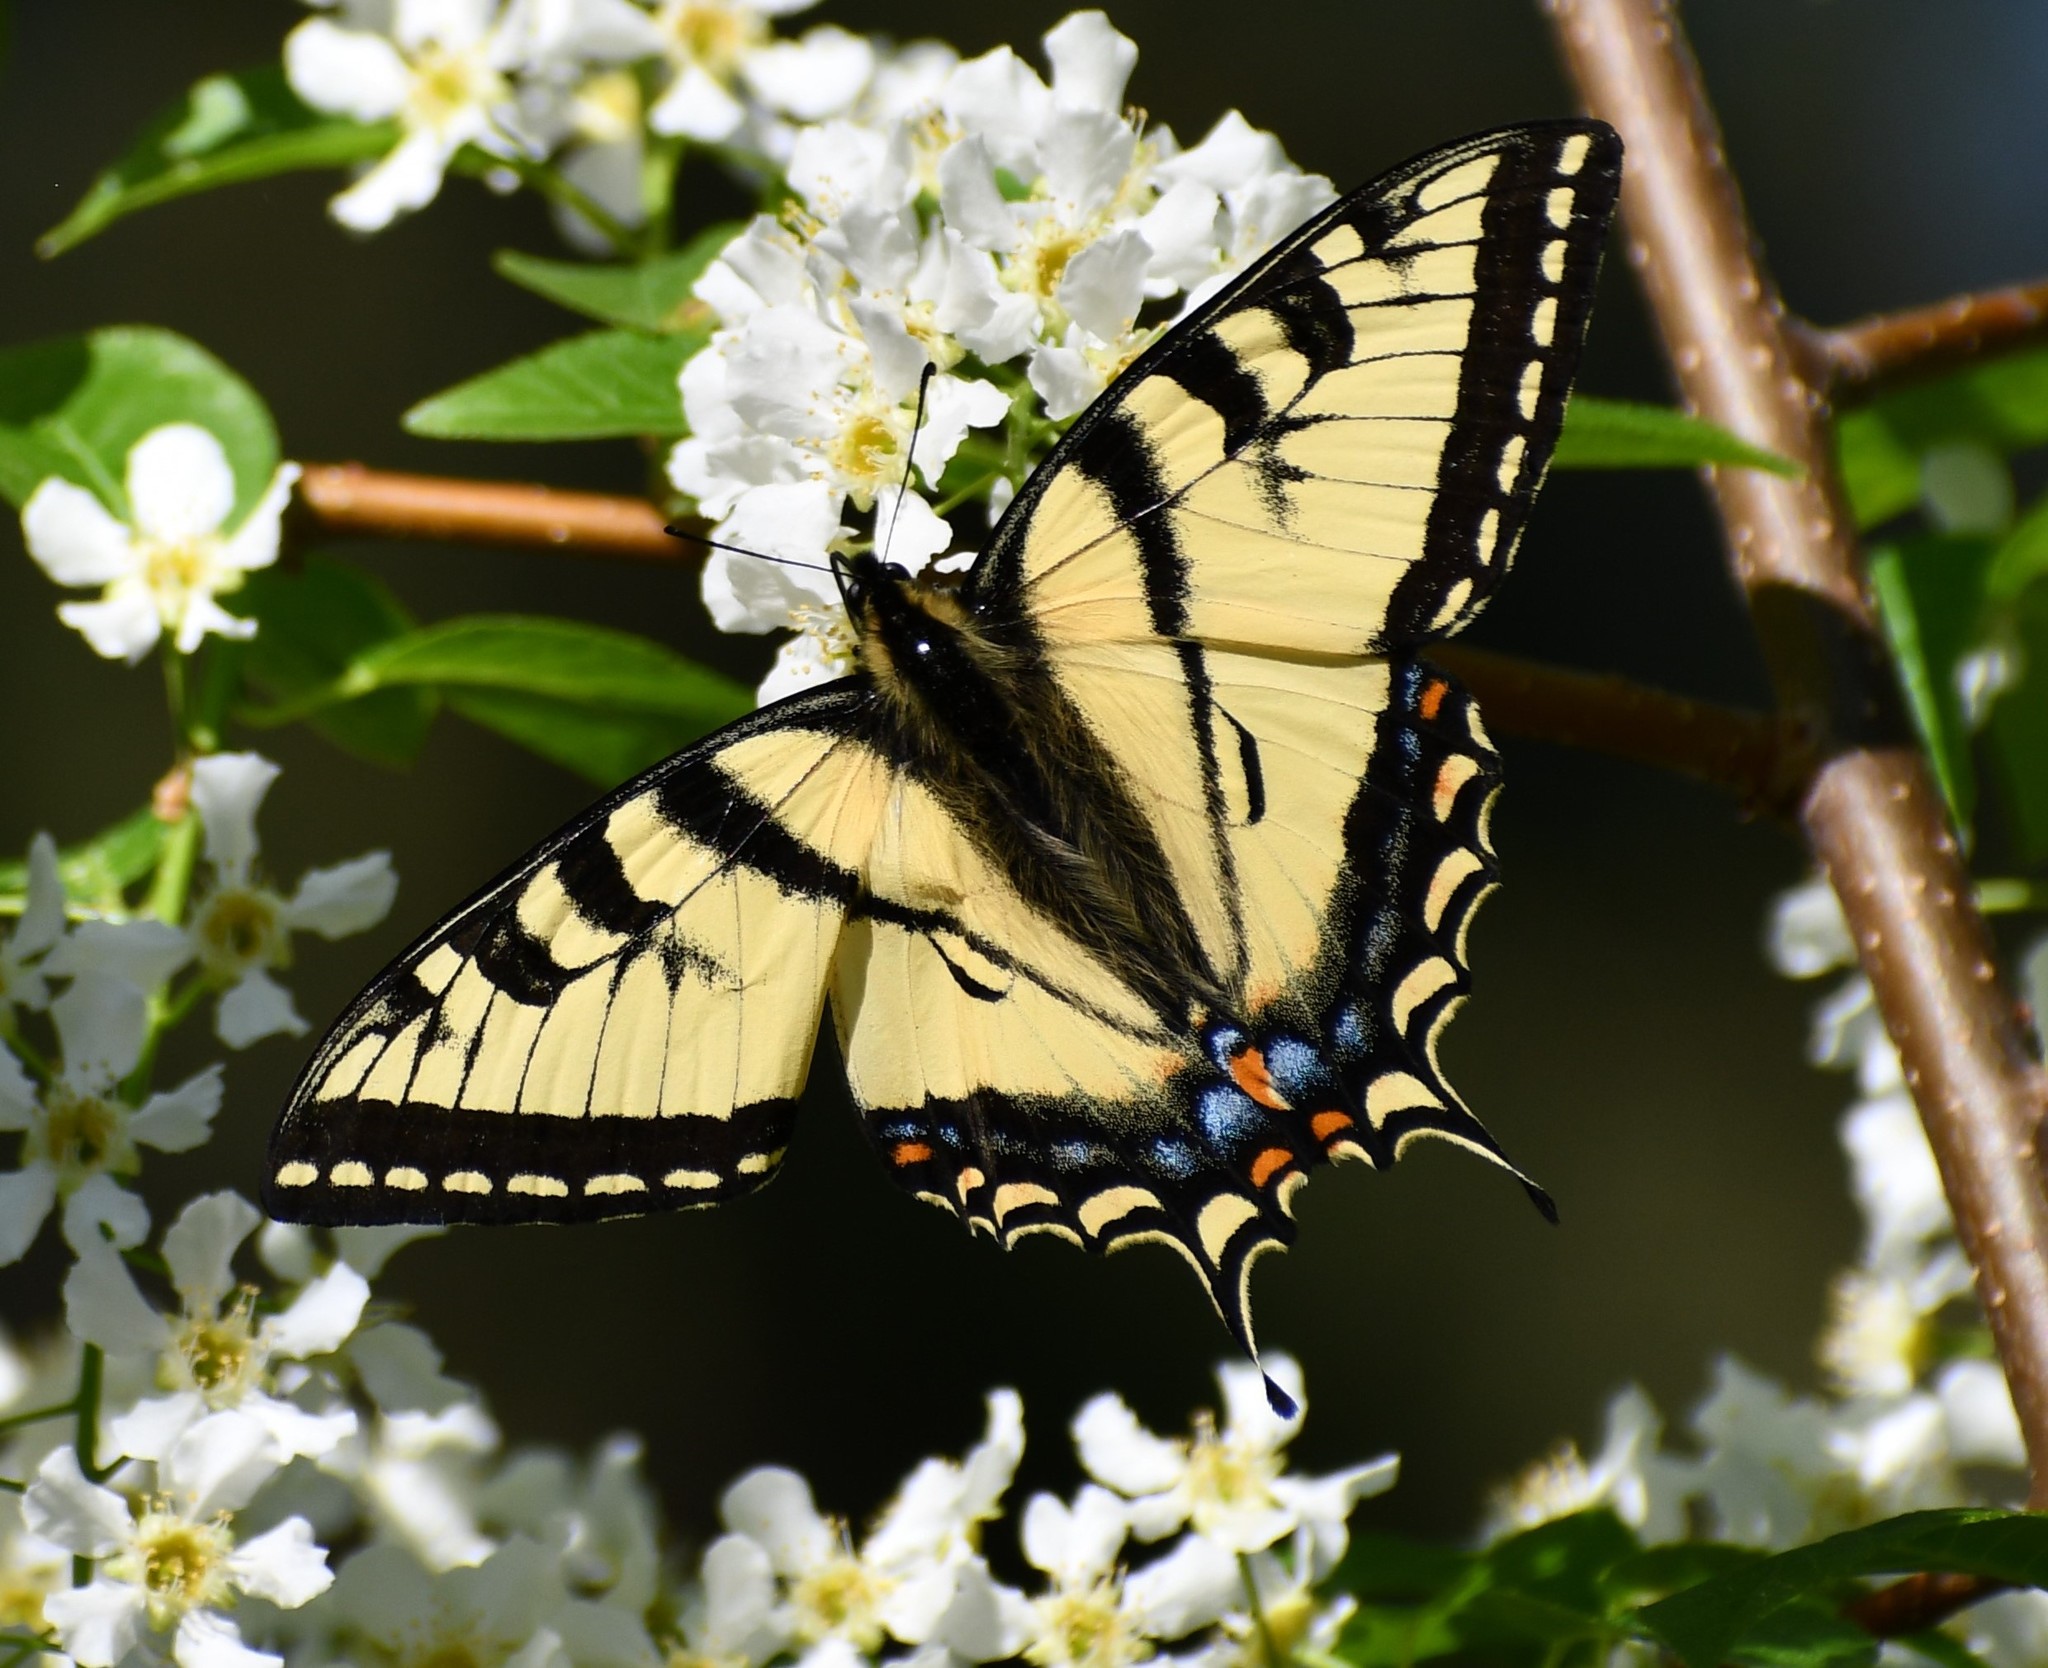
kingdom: Animalia
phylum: Arthropoda
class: Insecta
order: Lepidoptera
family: Papilionidae
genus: Papilio
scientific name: Papilio canadensis
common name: Canadian tiger swallowtail
